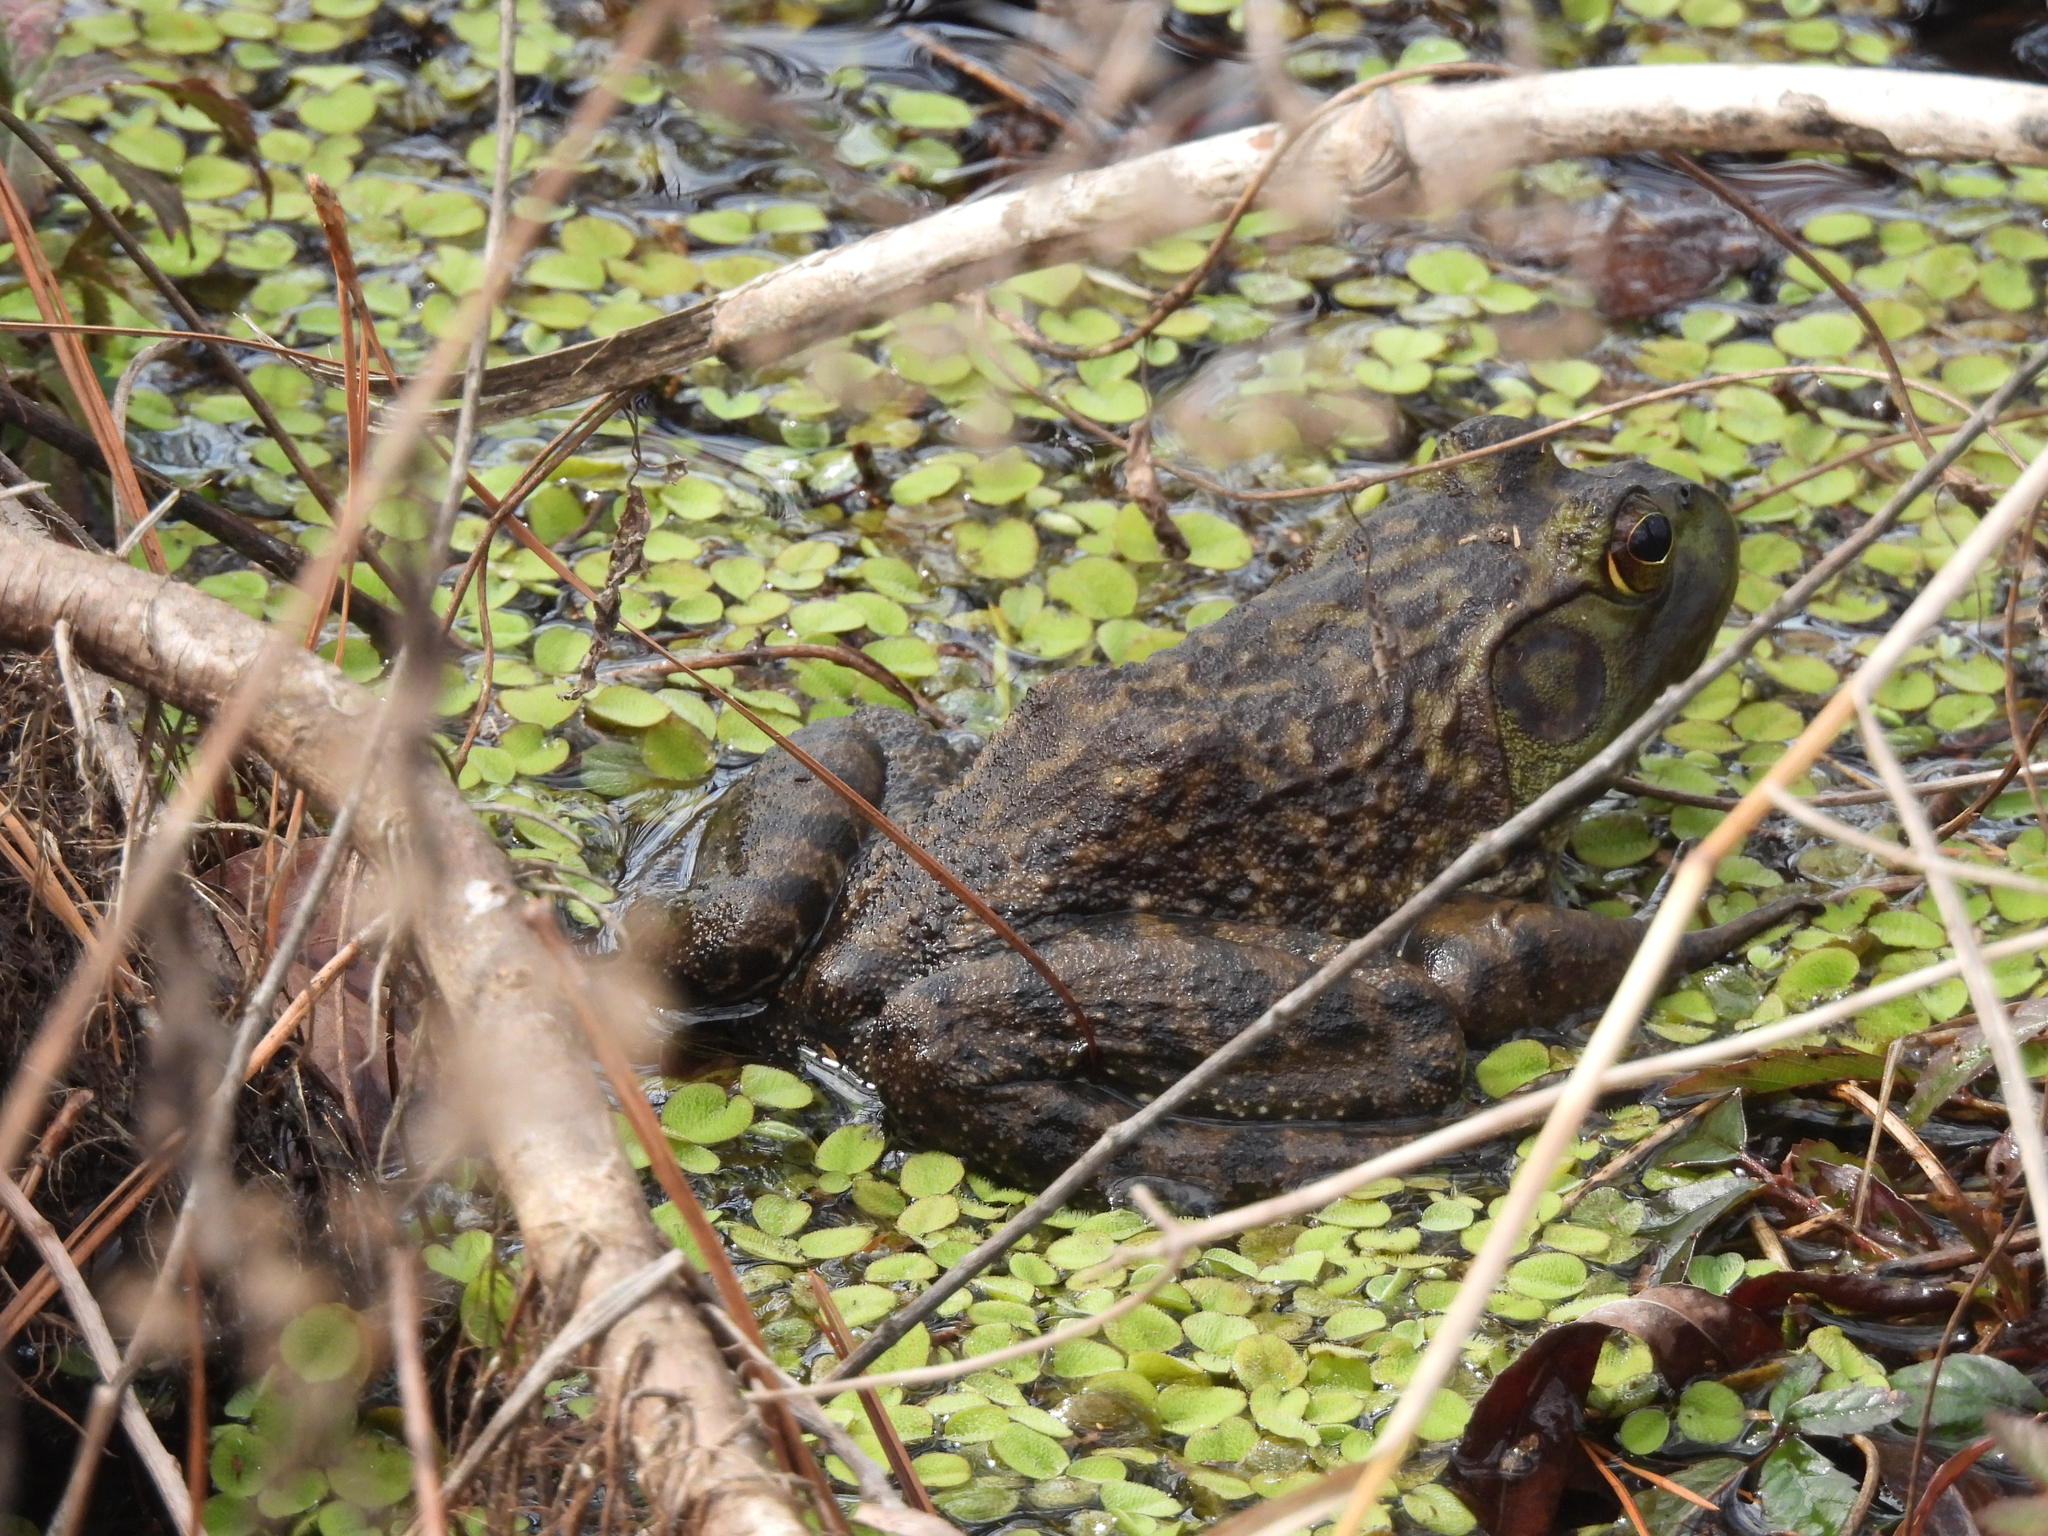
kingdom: Animalia
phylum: Chordata
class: Amphibia
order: Anura
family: Ranidae
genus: Lithobates
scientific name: Lithobates catesbeianus
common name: American bullfrog
